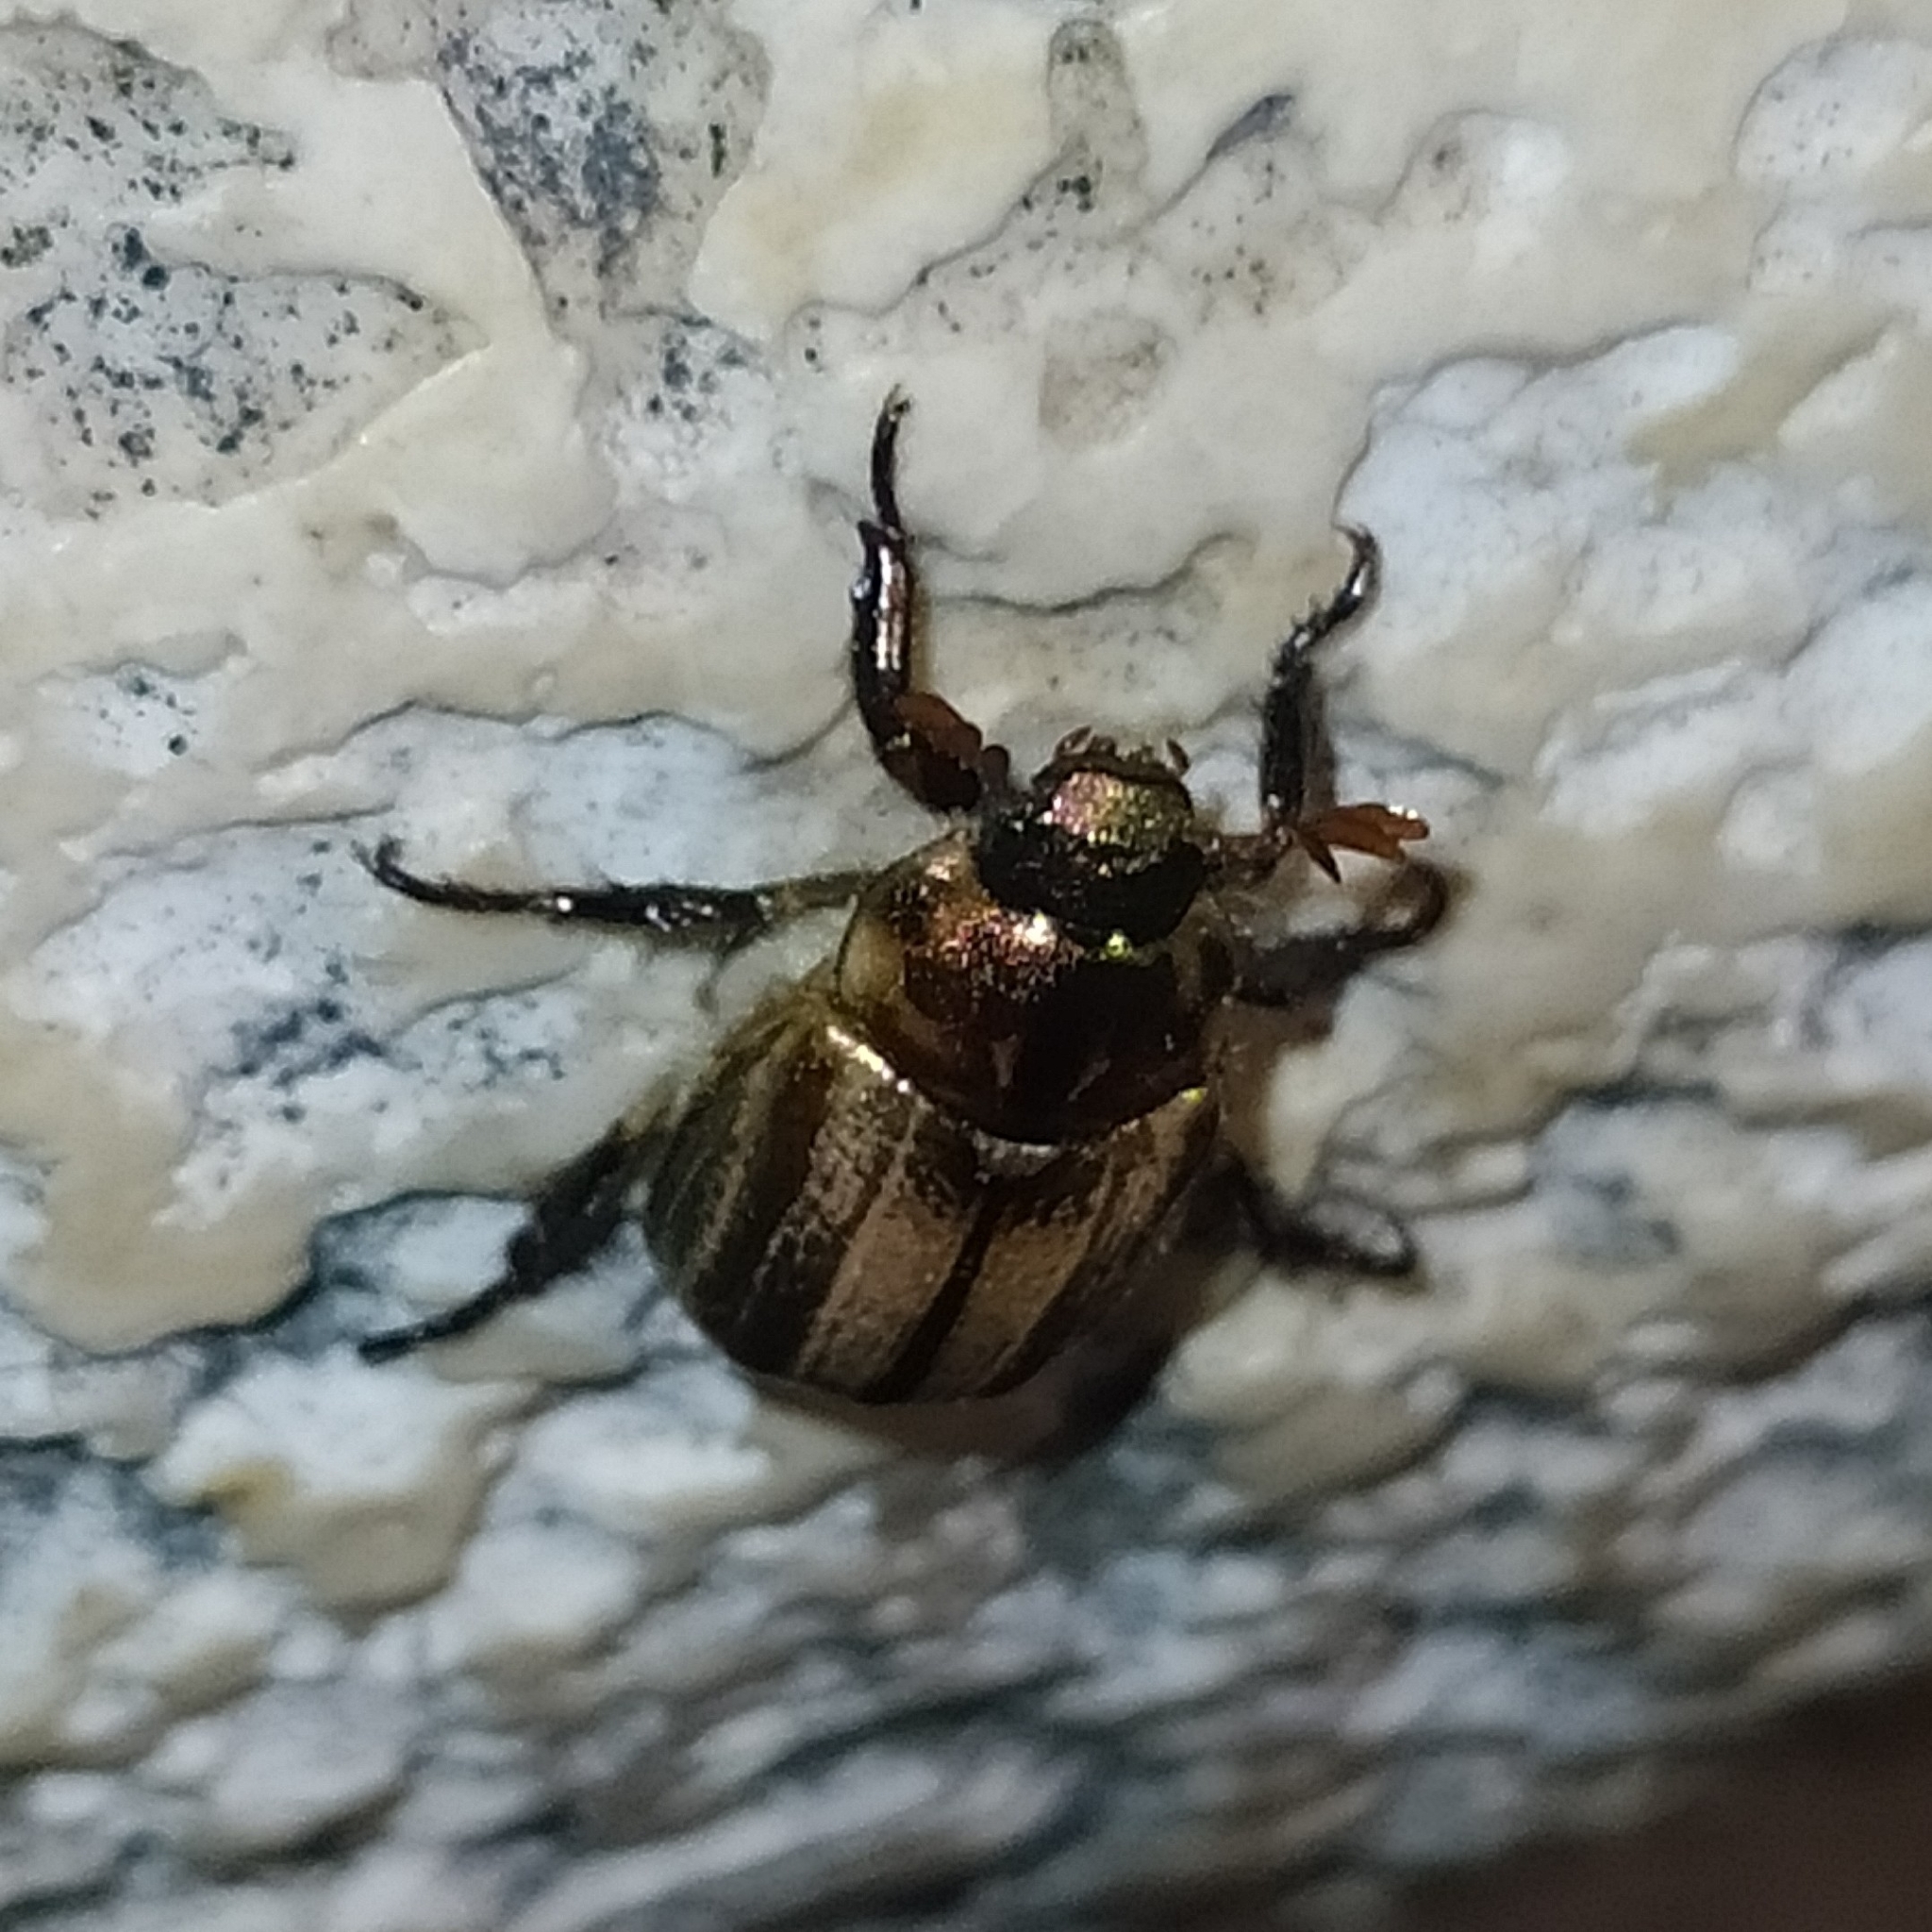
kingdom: Animalia
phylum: Arthropoda
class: Insecta
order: Coleoptera
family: Scarabaeidae
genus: Mimela
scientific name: Mimela junii
